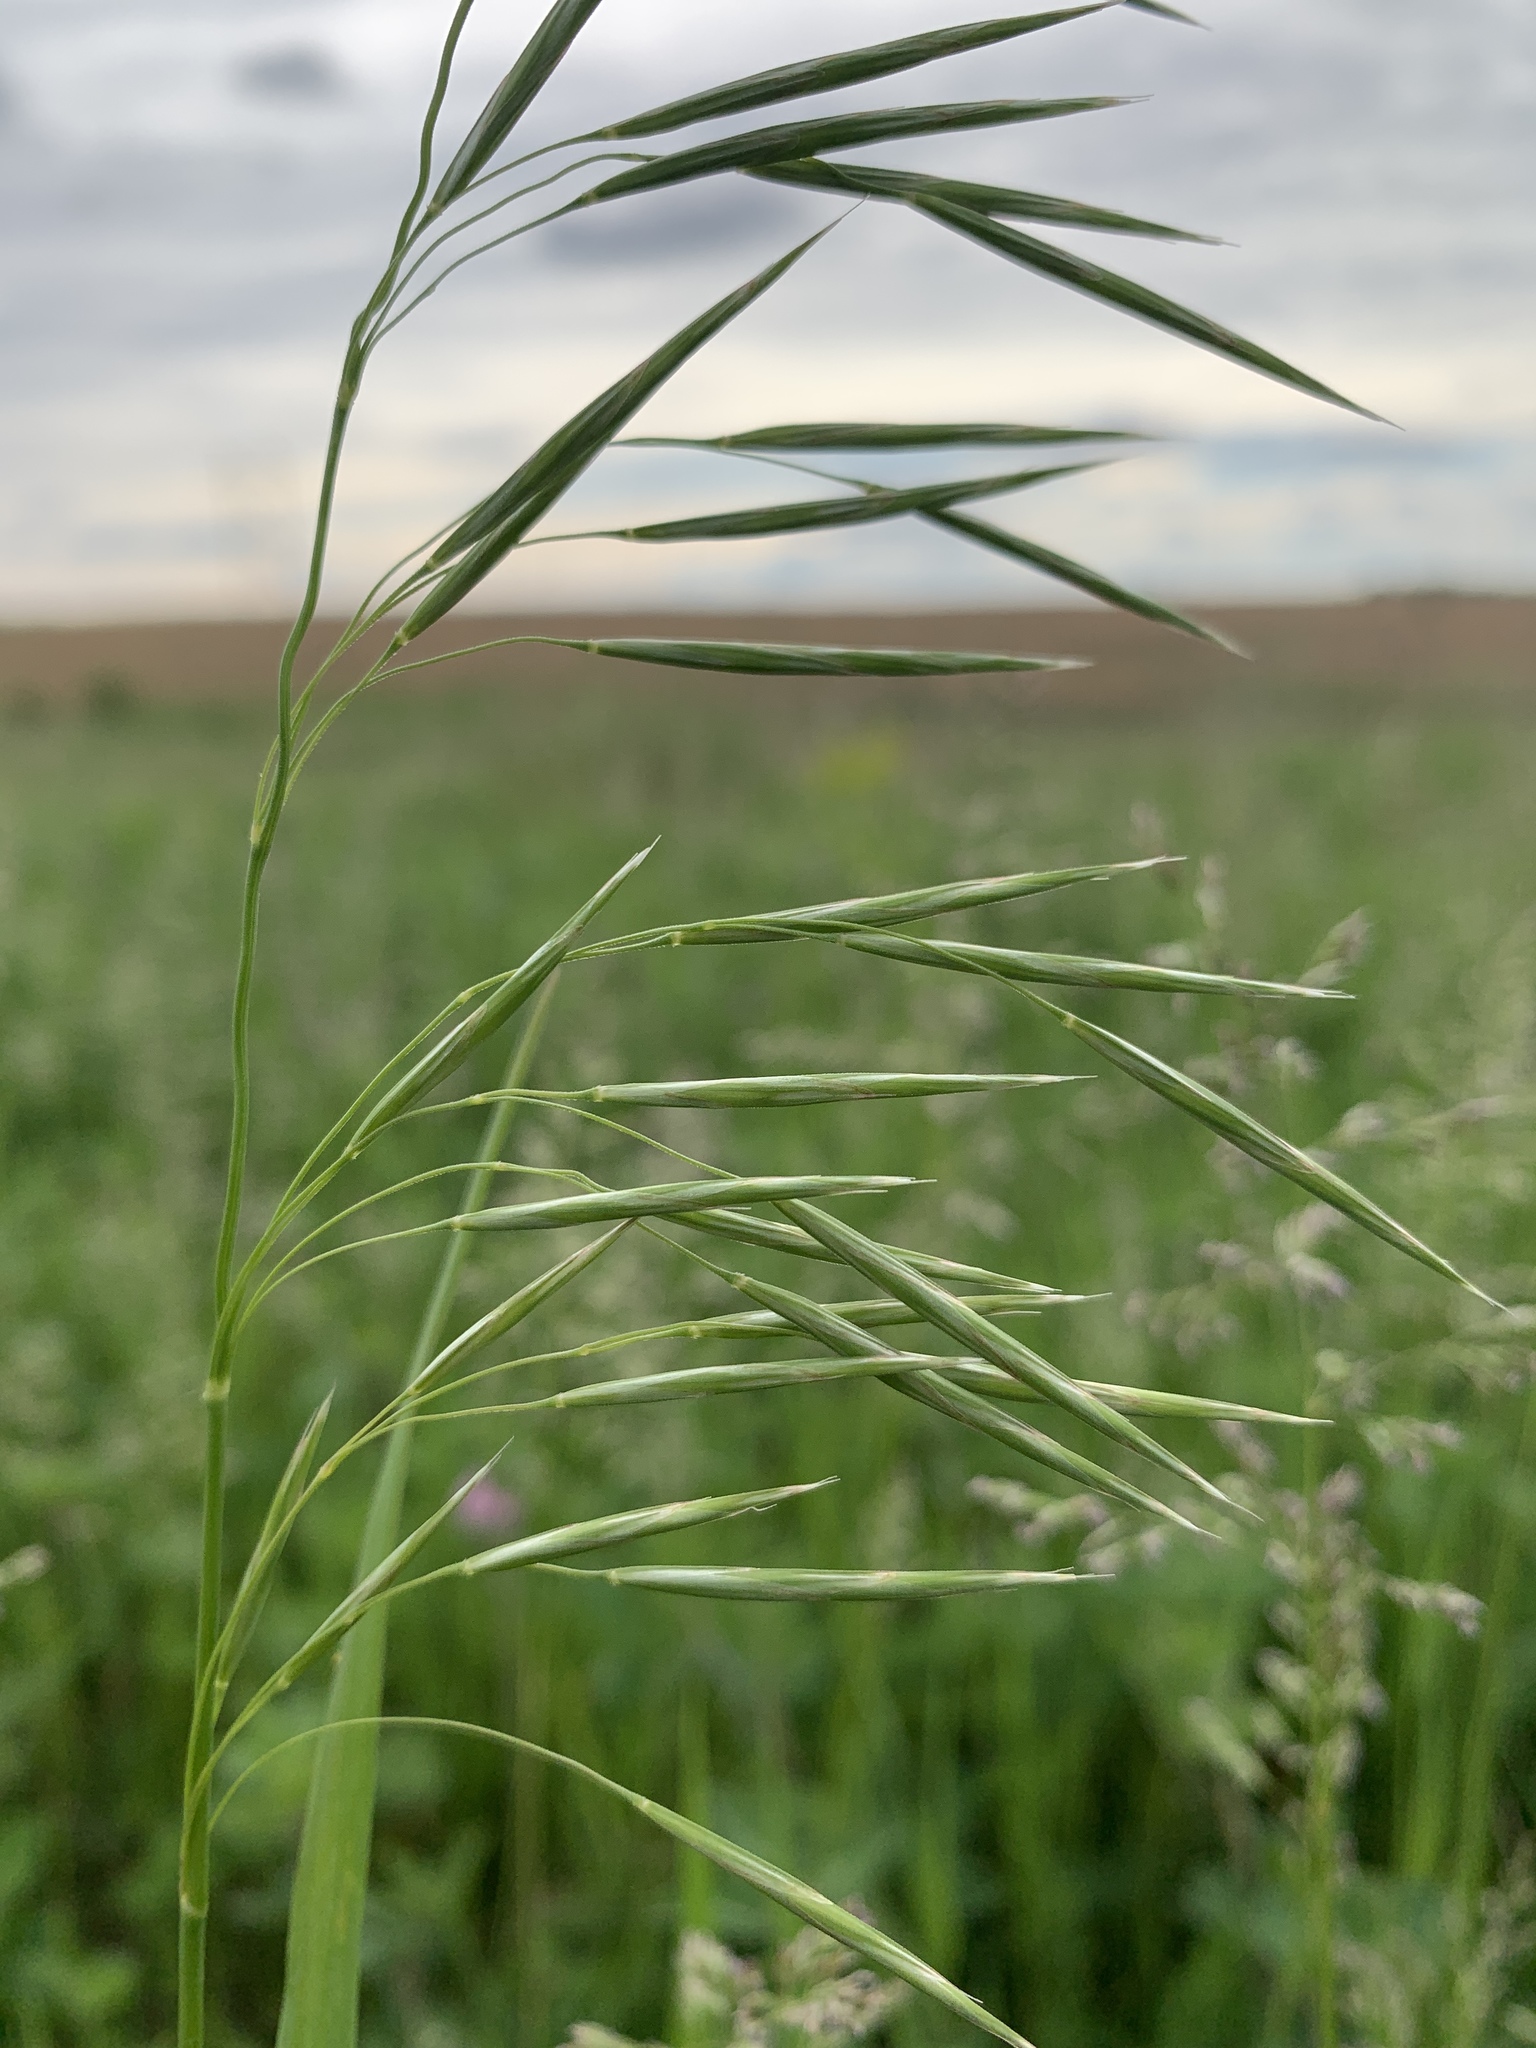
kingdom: Plantae
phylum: Tracheophyta
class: Liliopsida
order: Poales
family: Poaceae
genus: Bromus
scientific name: Bromus inermis
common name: Smooth brome
